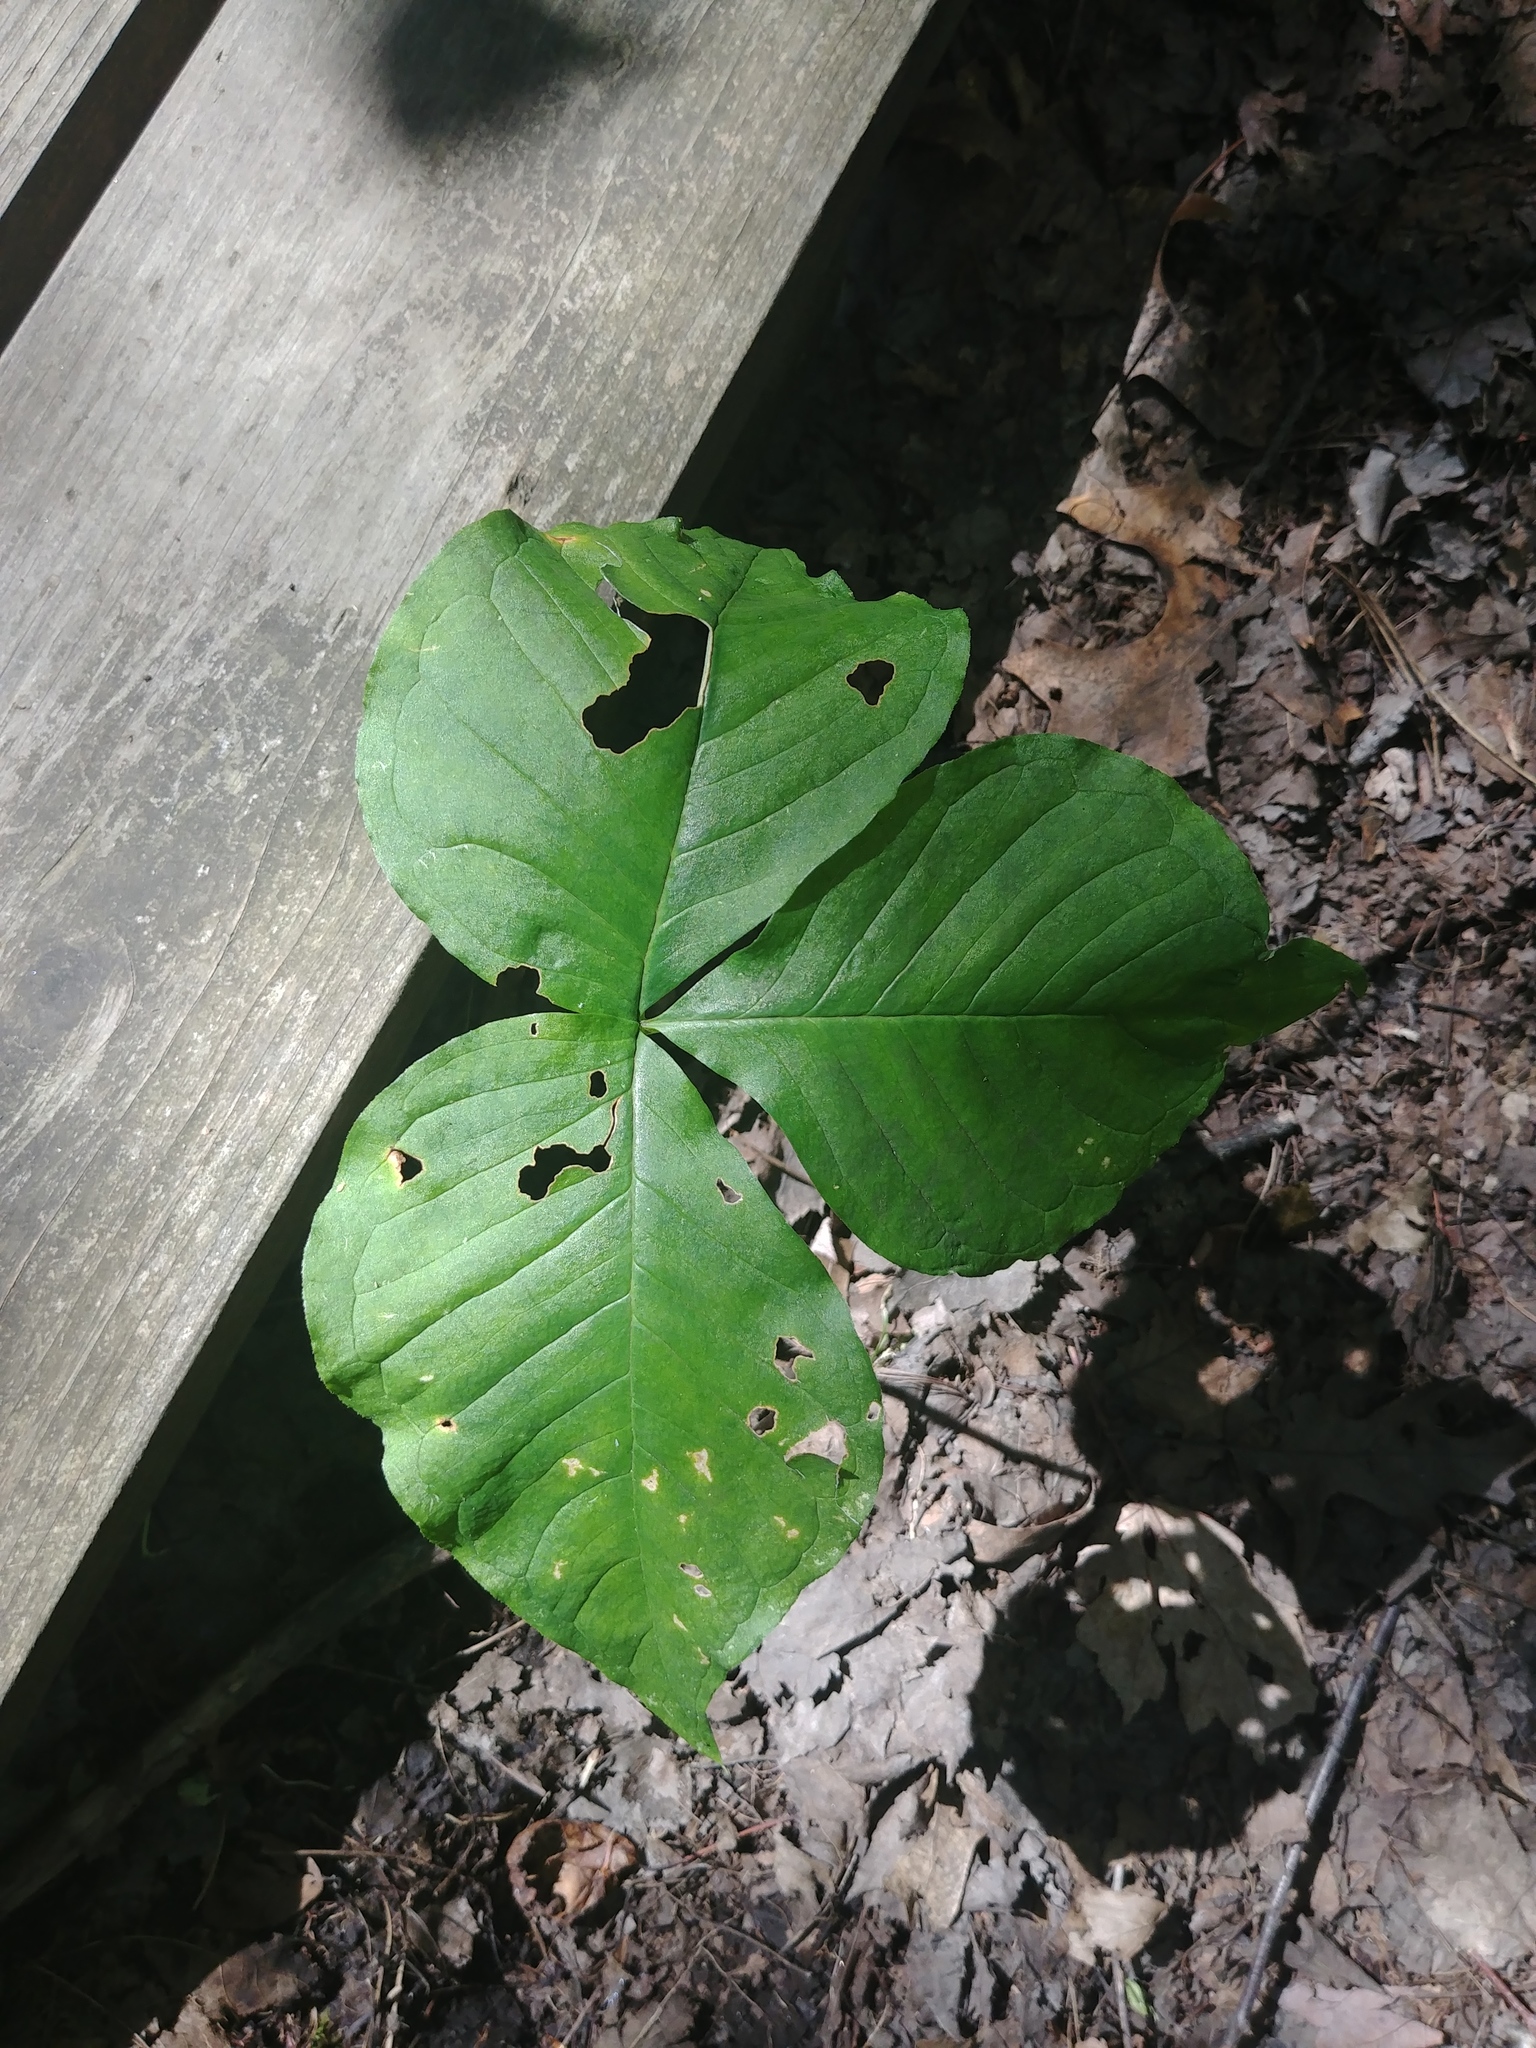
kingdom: Plantae
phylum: Tracheophyta
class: Liliopsida
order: Alismatales
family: Araceae
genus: Arisaema
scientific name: Arisaema triphyllum
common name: Jack-in-the-pulpit
